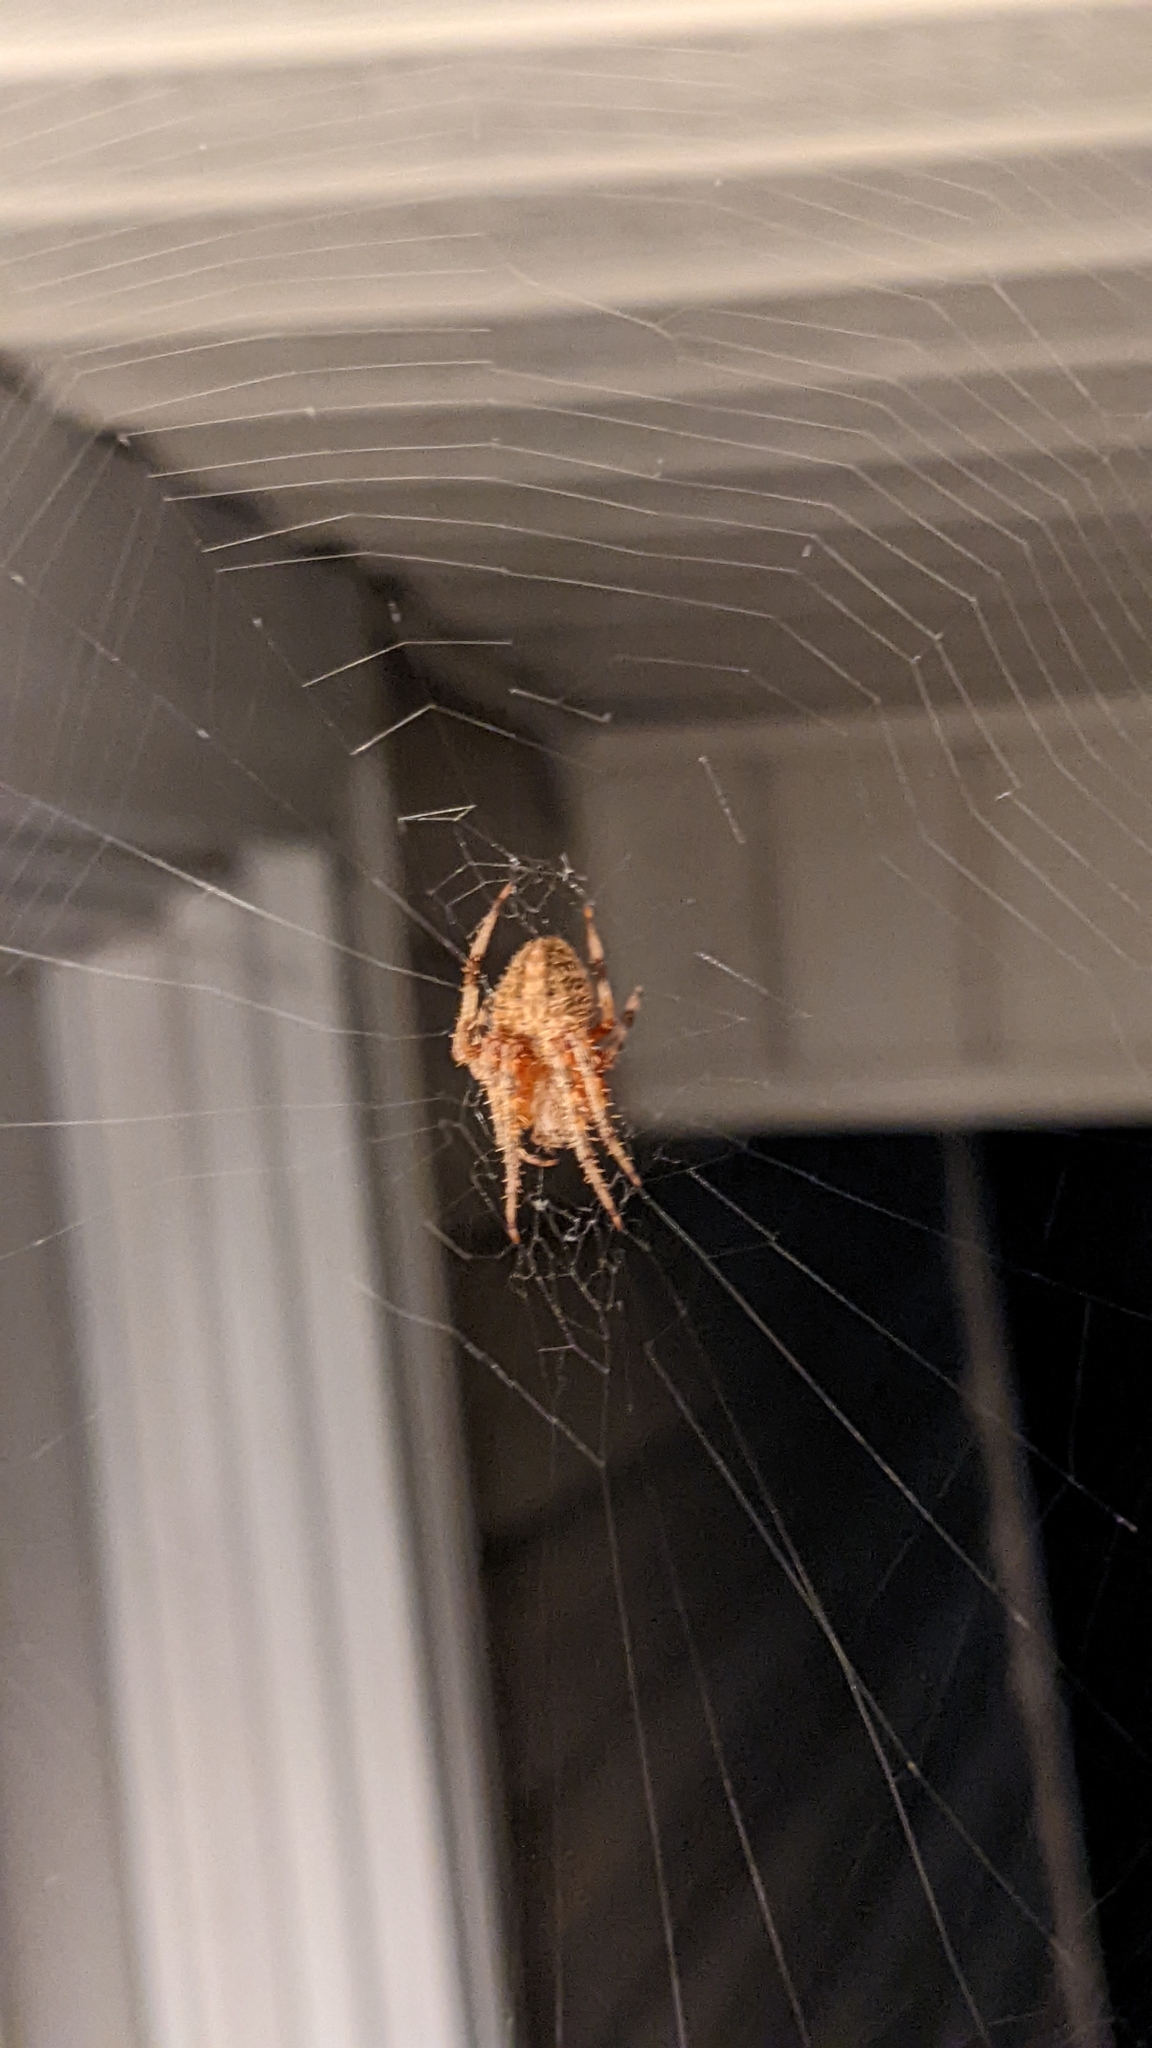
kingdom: Animalia
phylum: Arthropoda
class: Arachnida
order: Araneae
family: Araneidae
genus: Neoscona
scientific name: Neoscona crucifera
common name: Spotted orbweaver
